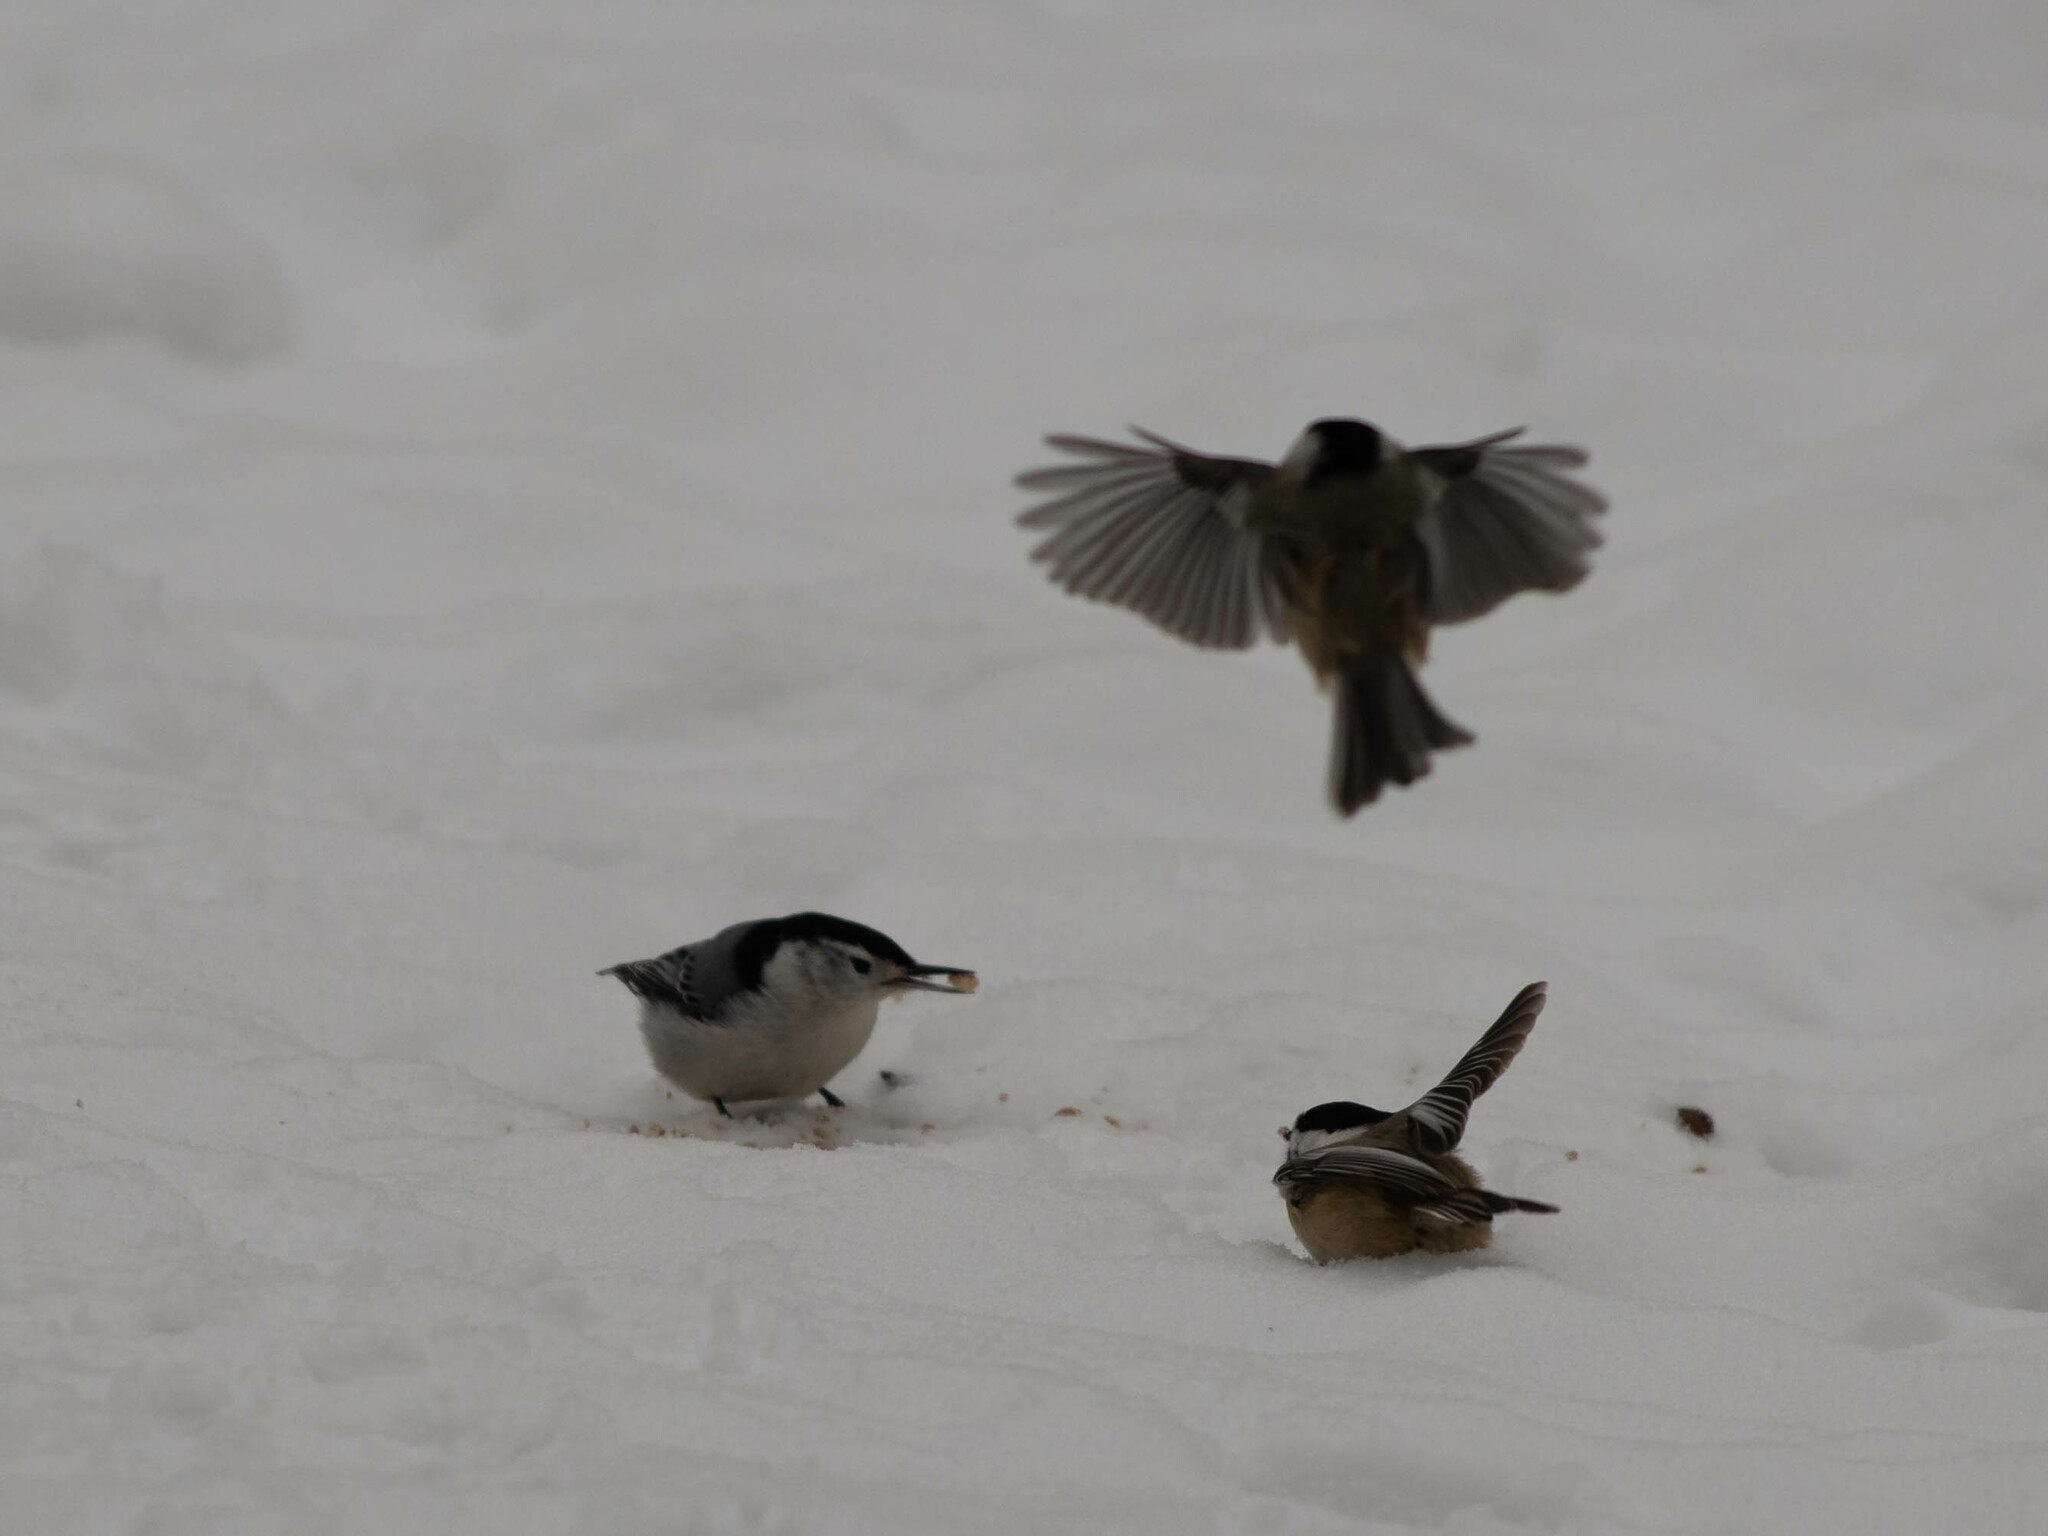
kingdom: Animalia
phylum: Chordata
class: Aves
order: Passeriformes
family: Sittidae
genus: Sitta
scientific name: Sitta carolinensis
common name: White-breasted nuthatch
